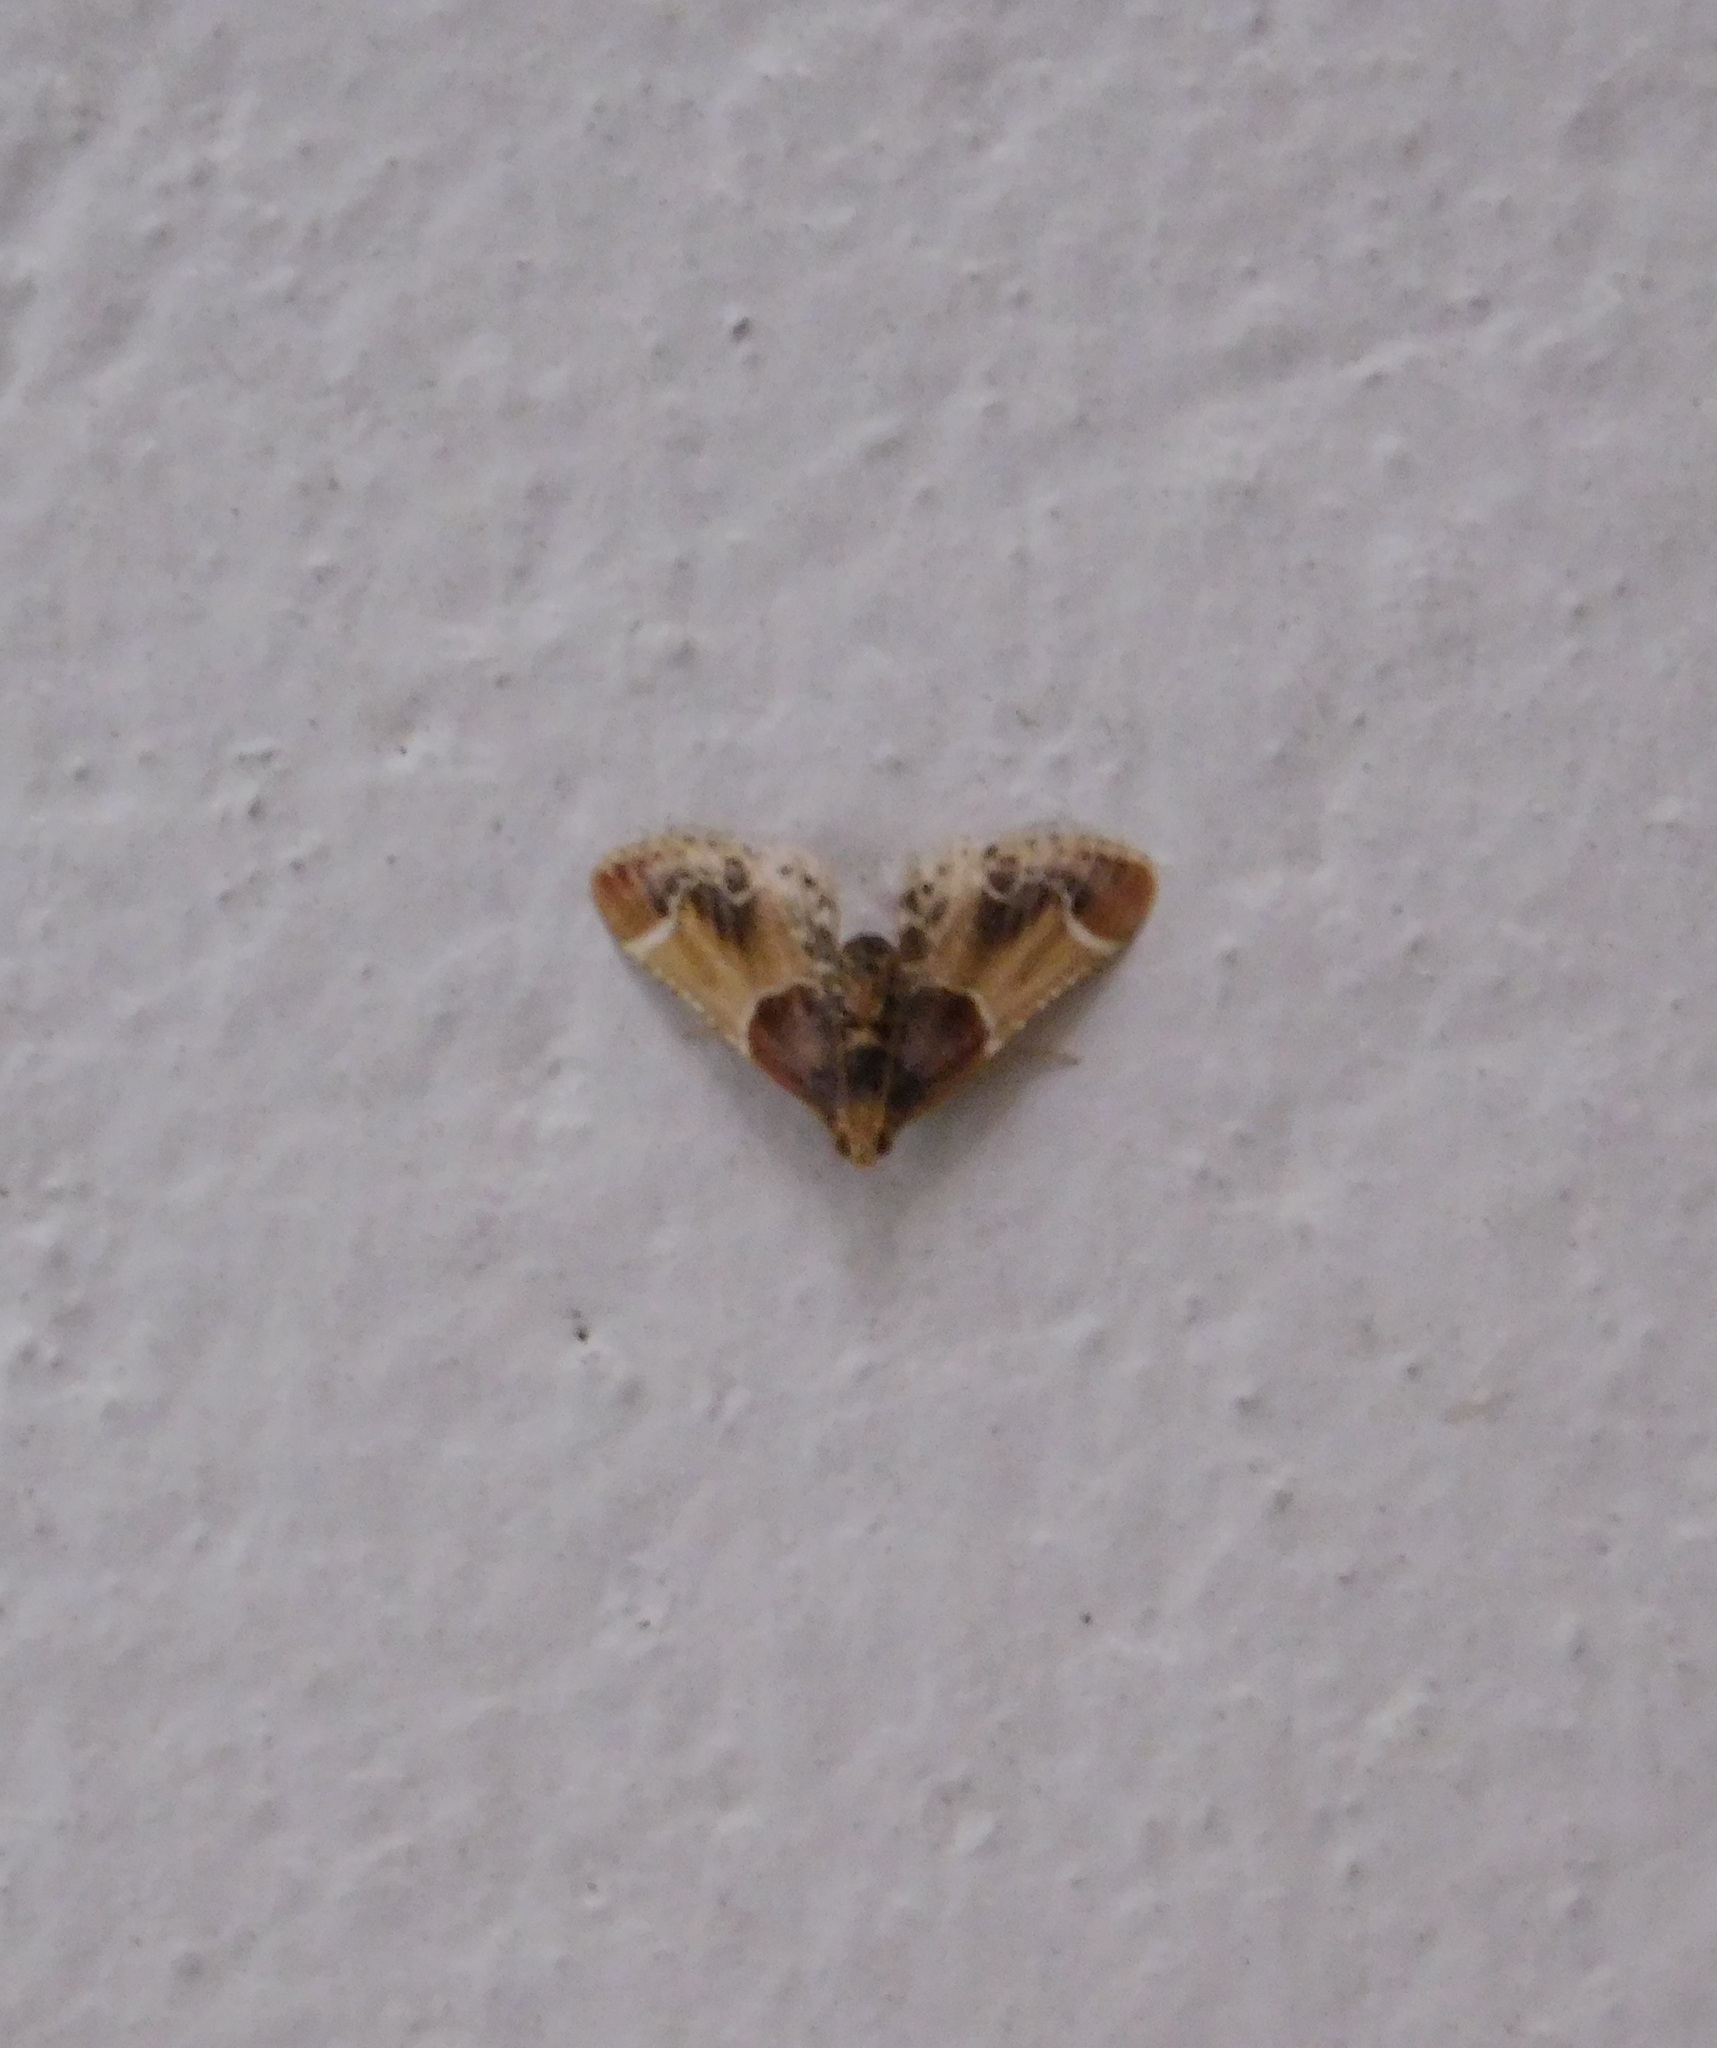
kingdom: Animalia
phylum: Arthropoda
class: Insecta
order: Lepidoptera
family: Pyralidae
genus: Pyralis
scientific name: Pyralis farinalis
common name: Meal moth
